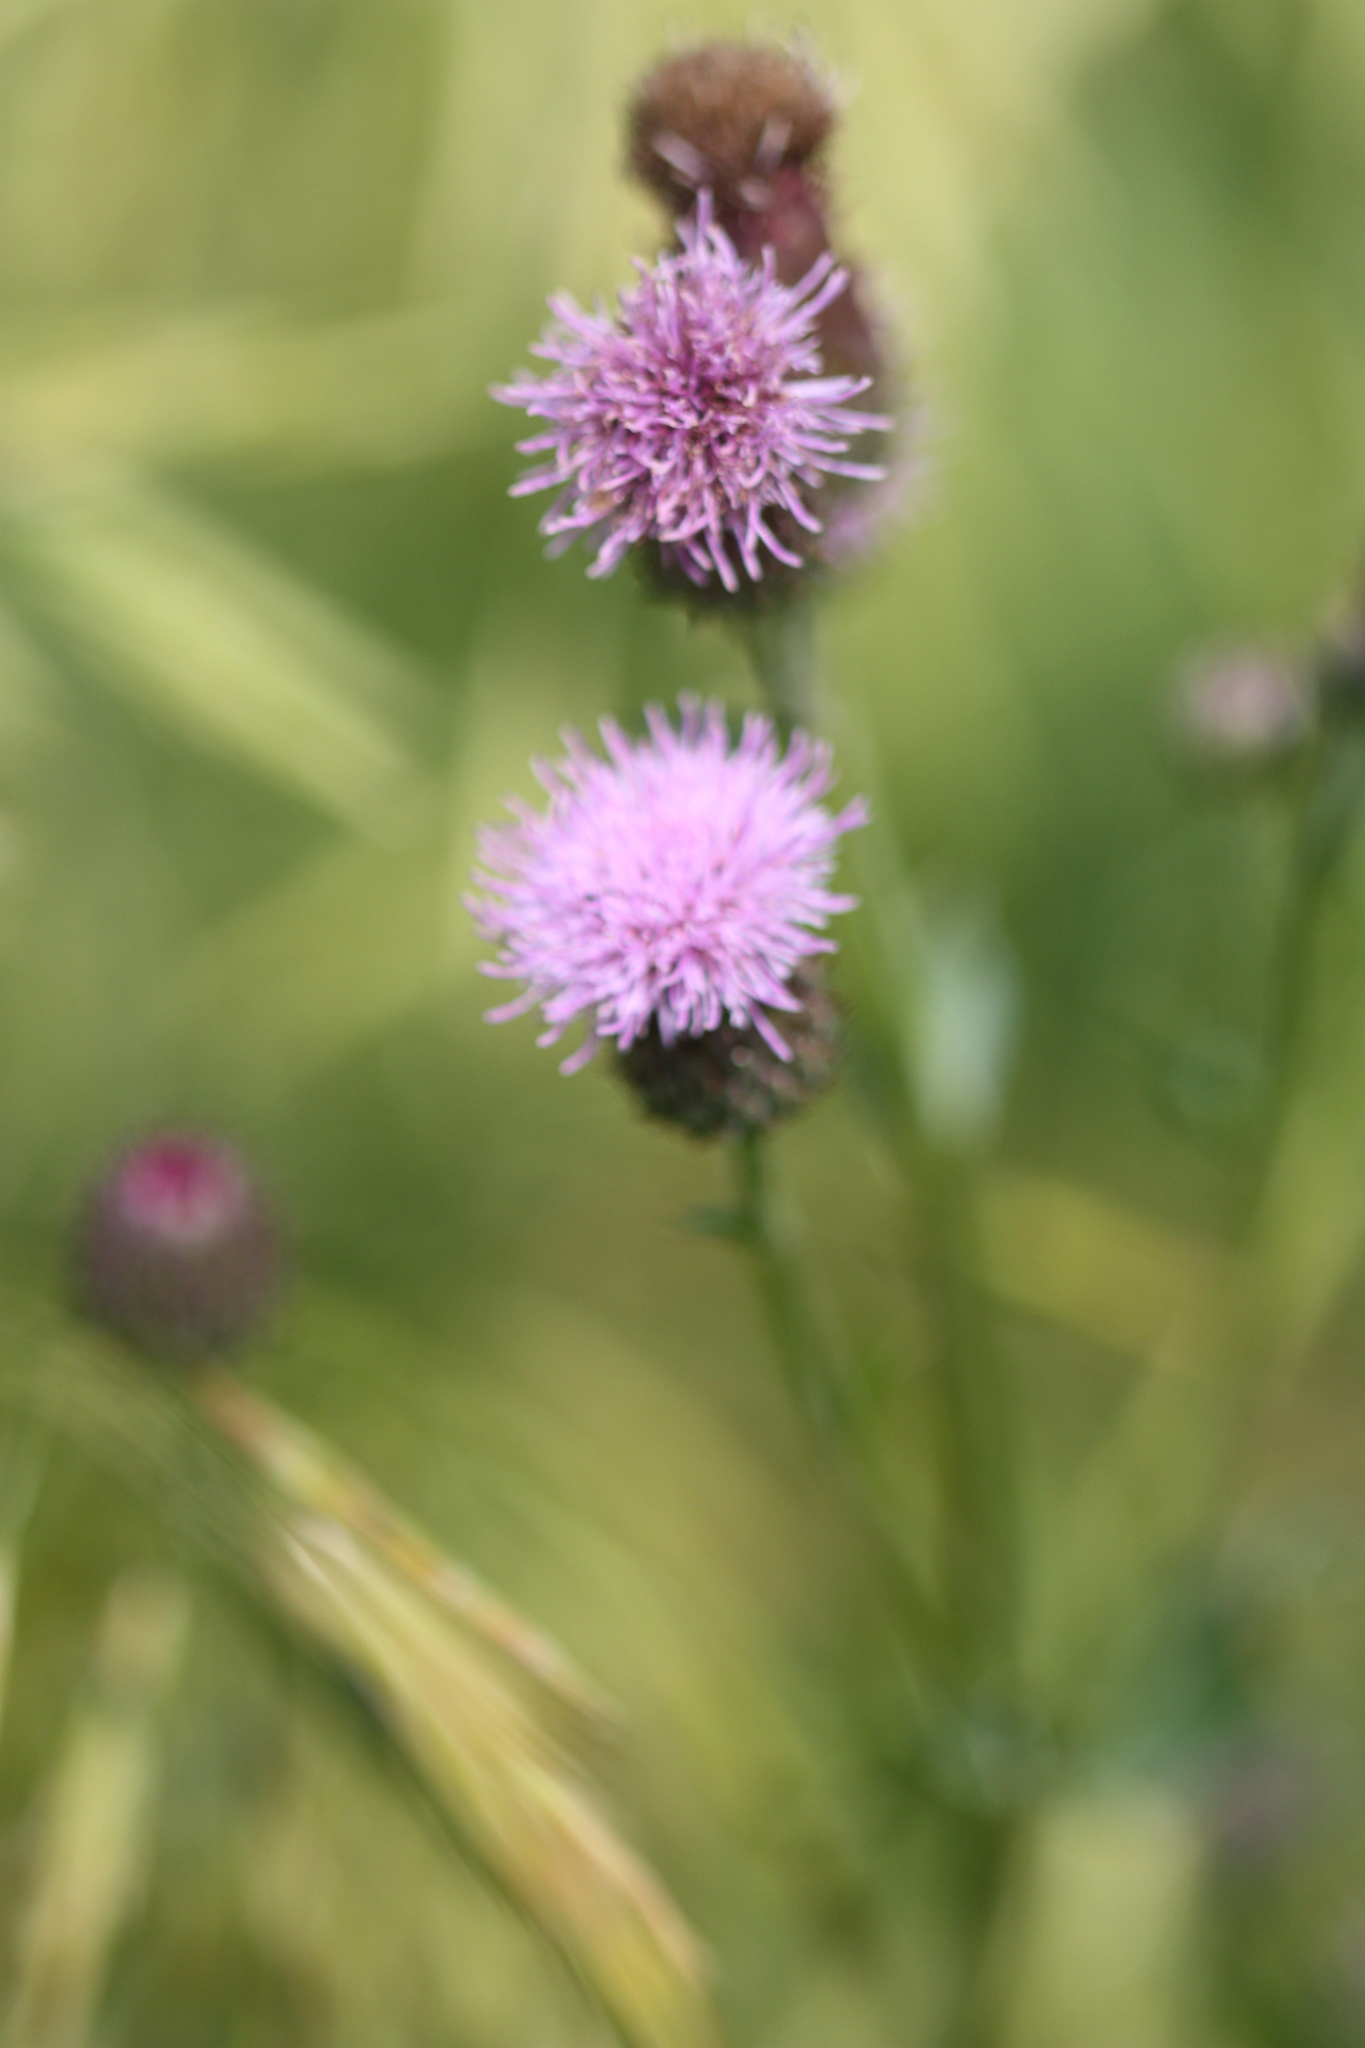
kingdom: Plantae
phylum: Tracheophyta
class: Magnoliopsida
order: Asterales
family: Asteraceae
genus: Cirsium
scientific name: Cirsium arvense
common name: Creeping thistle
